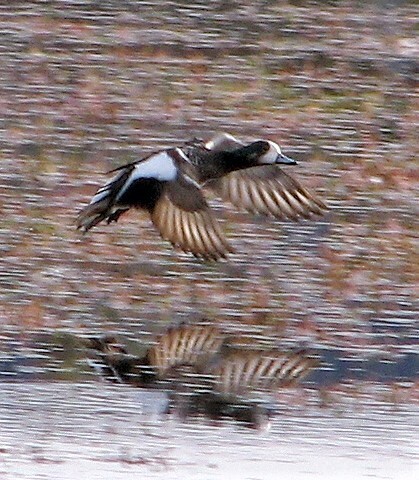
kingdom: Animalia
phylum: Chordata
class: Aves
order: Anseriformes
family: Anatidae
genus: Mareca
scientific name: Mareca sibilatrix
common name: Chiloe wigeon
